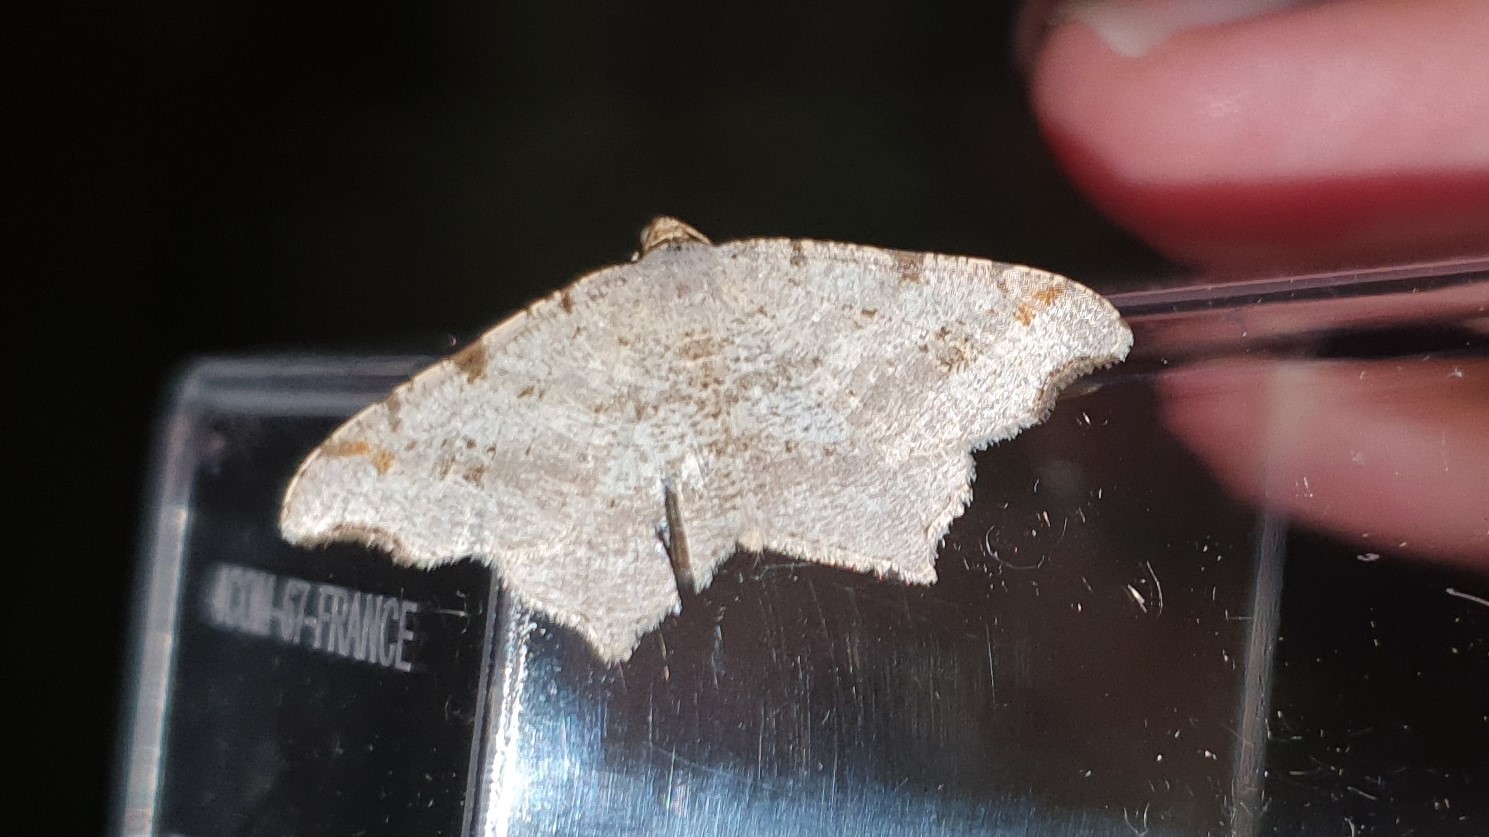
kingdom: Animalia
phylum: Arthropoda
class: Insecta
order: Lepidoptera
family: Geometridae
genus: Macaria
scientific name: Macaria alternata
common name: Sharp-angled peacock
